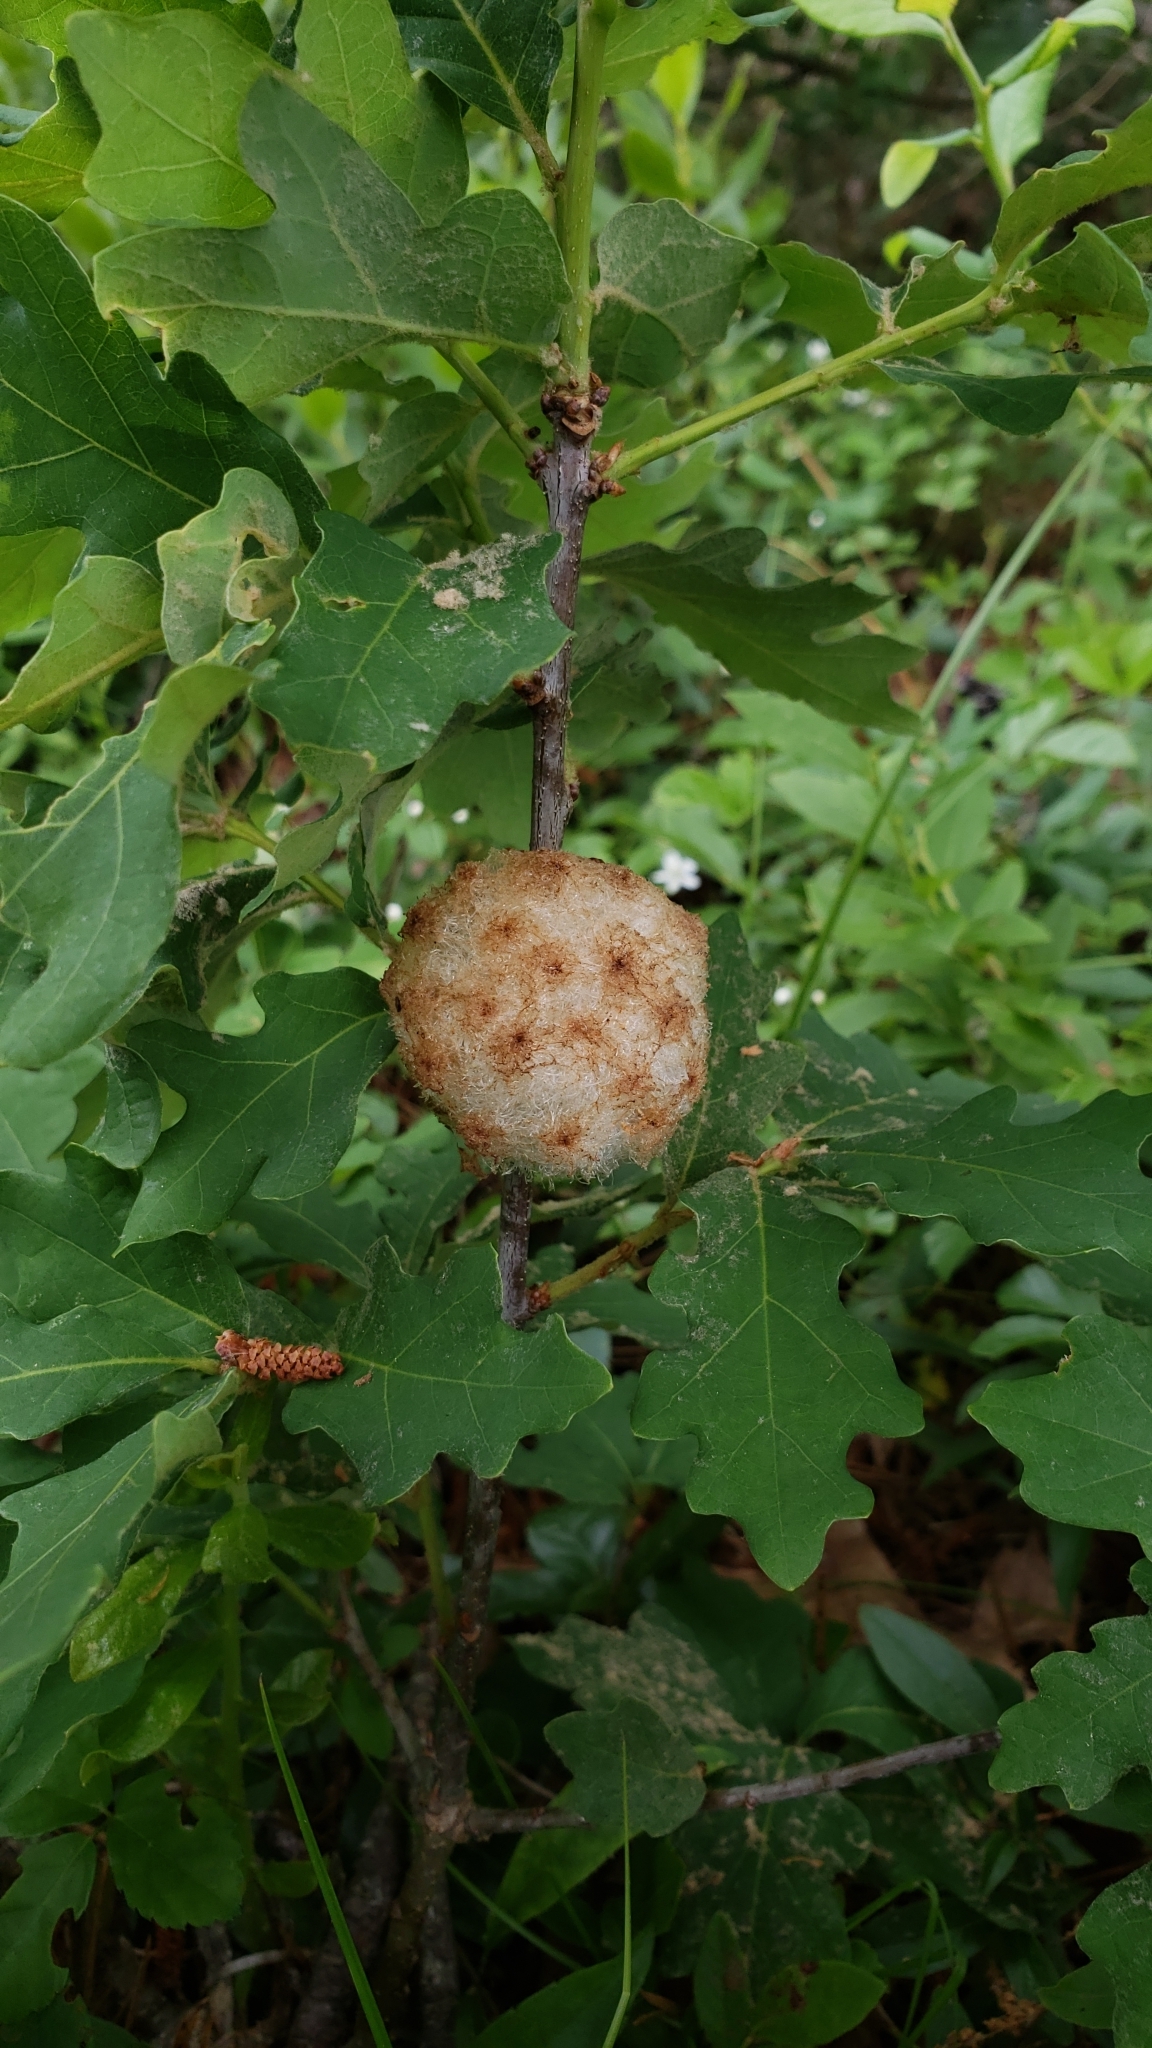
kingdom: Animalia
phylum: Arthropoda
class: Insecta
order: Hymenoptera
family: Cynipidae
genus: Callirhytis
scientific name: Callirhytis
